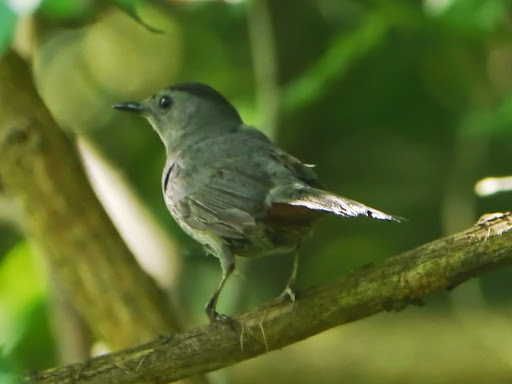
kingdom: Animalia
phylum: Chordata
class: Aves
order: Passeriformes
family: Mimidae
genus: Dumetella
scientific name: Dumetella carolinensis
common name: Gray catbird
